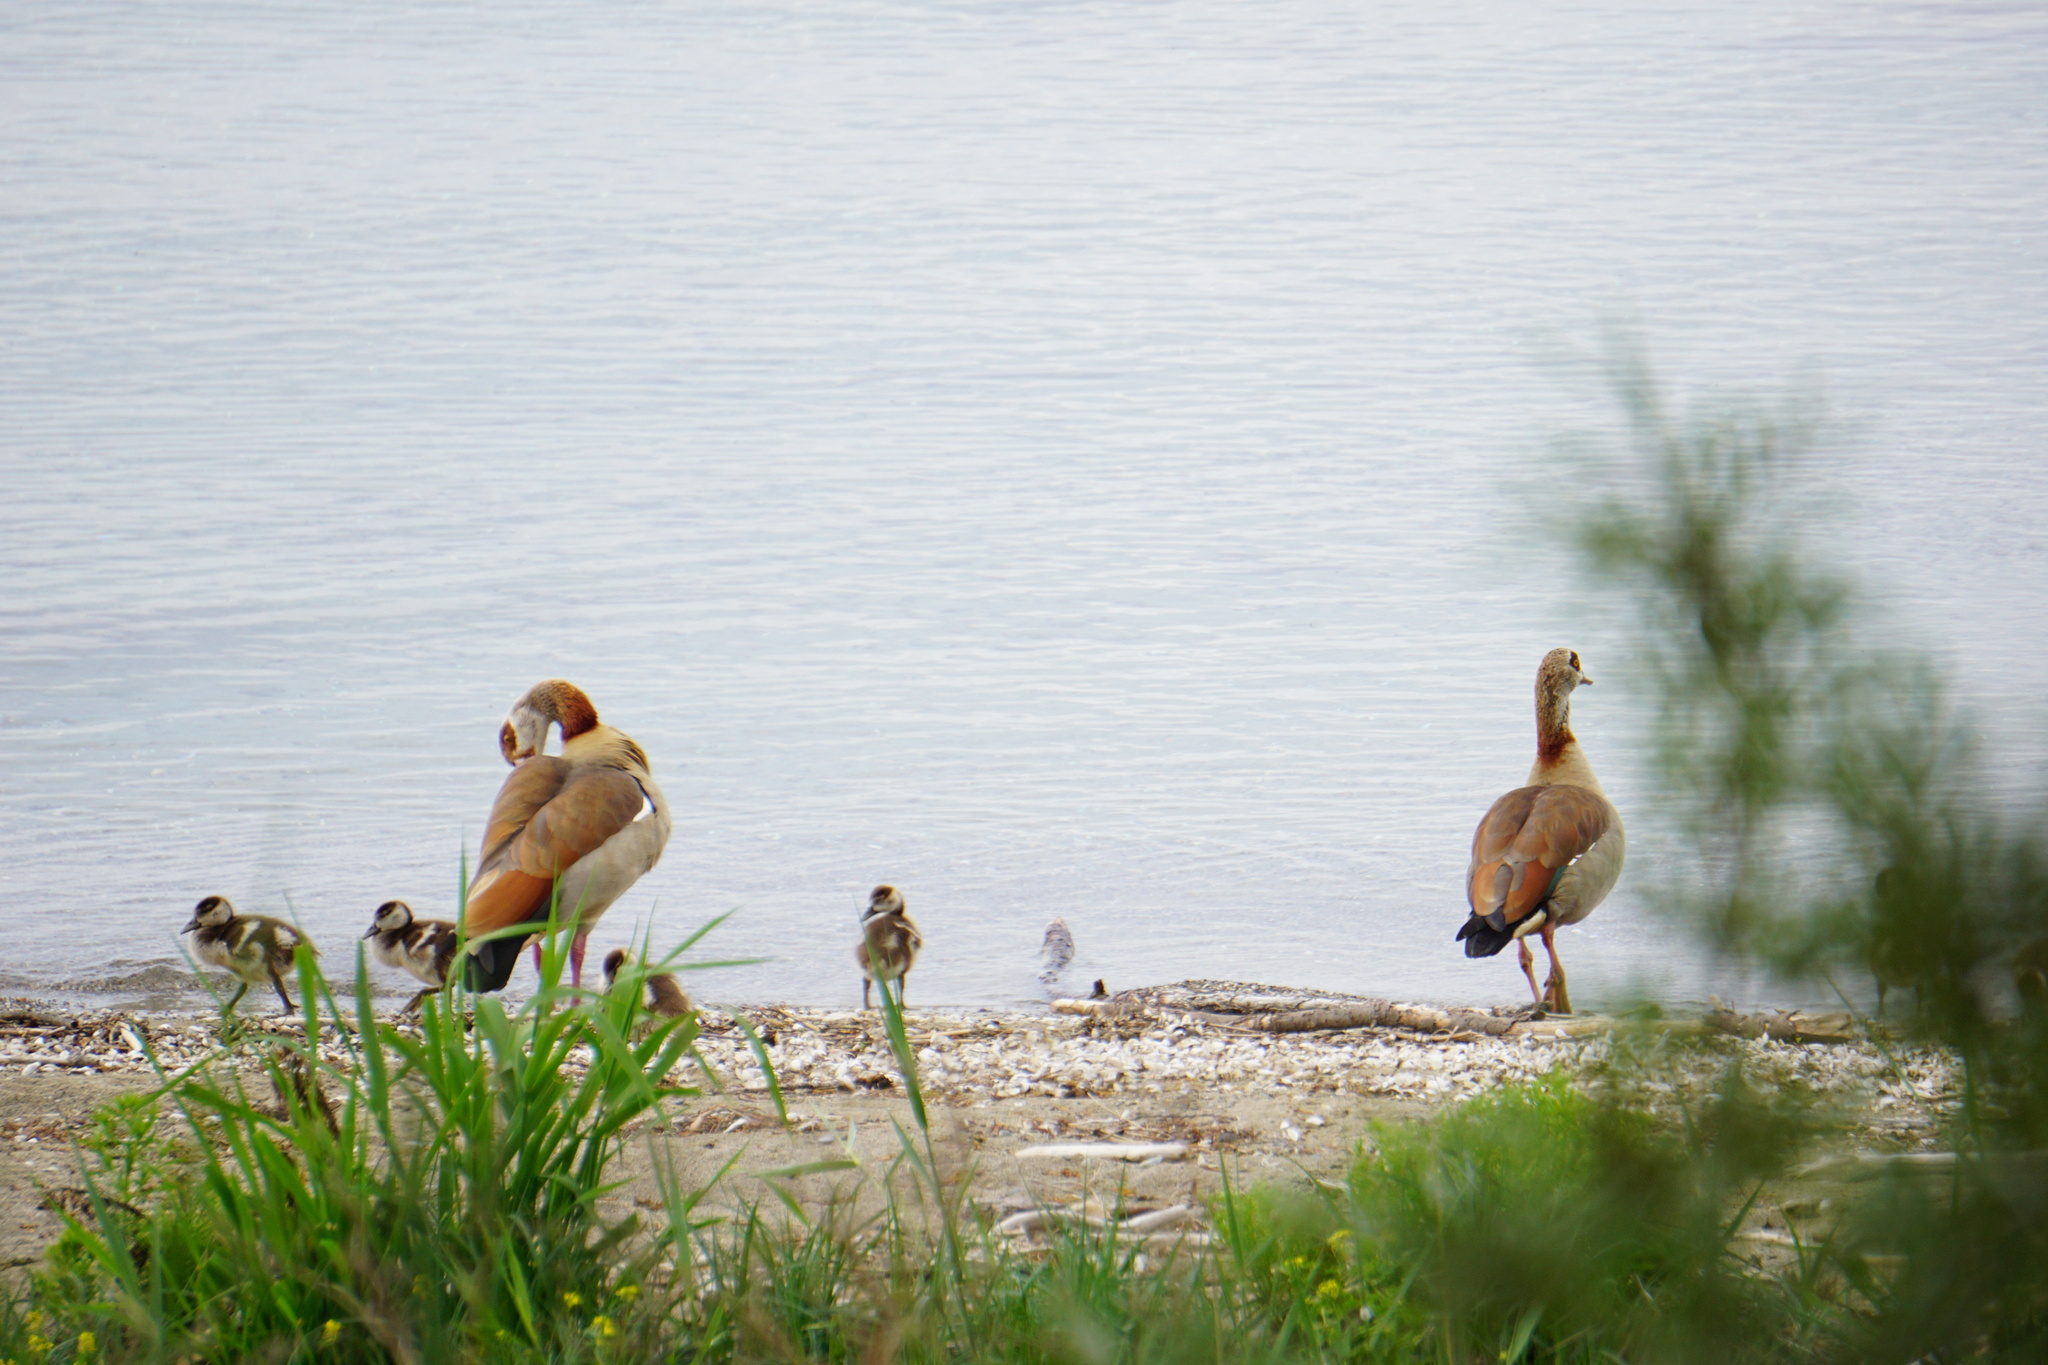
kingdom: Animalia
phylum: Chordata
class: Aves
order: Anseriformes
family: Anatidae
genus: Alopochen
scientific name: Alopochen aegyptiaca
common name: Egyptian goose
